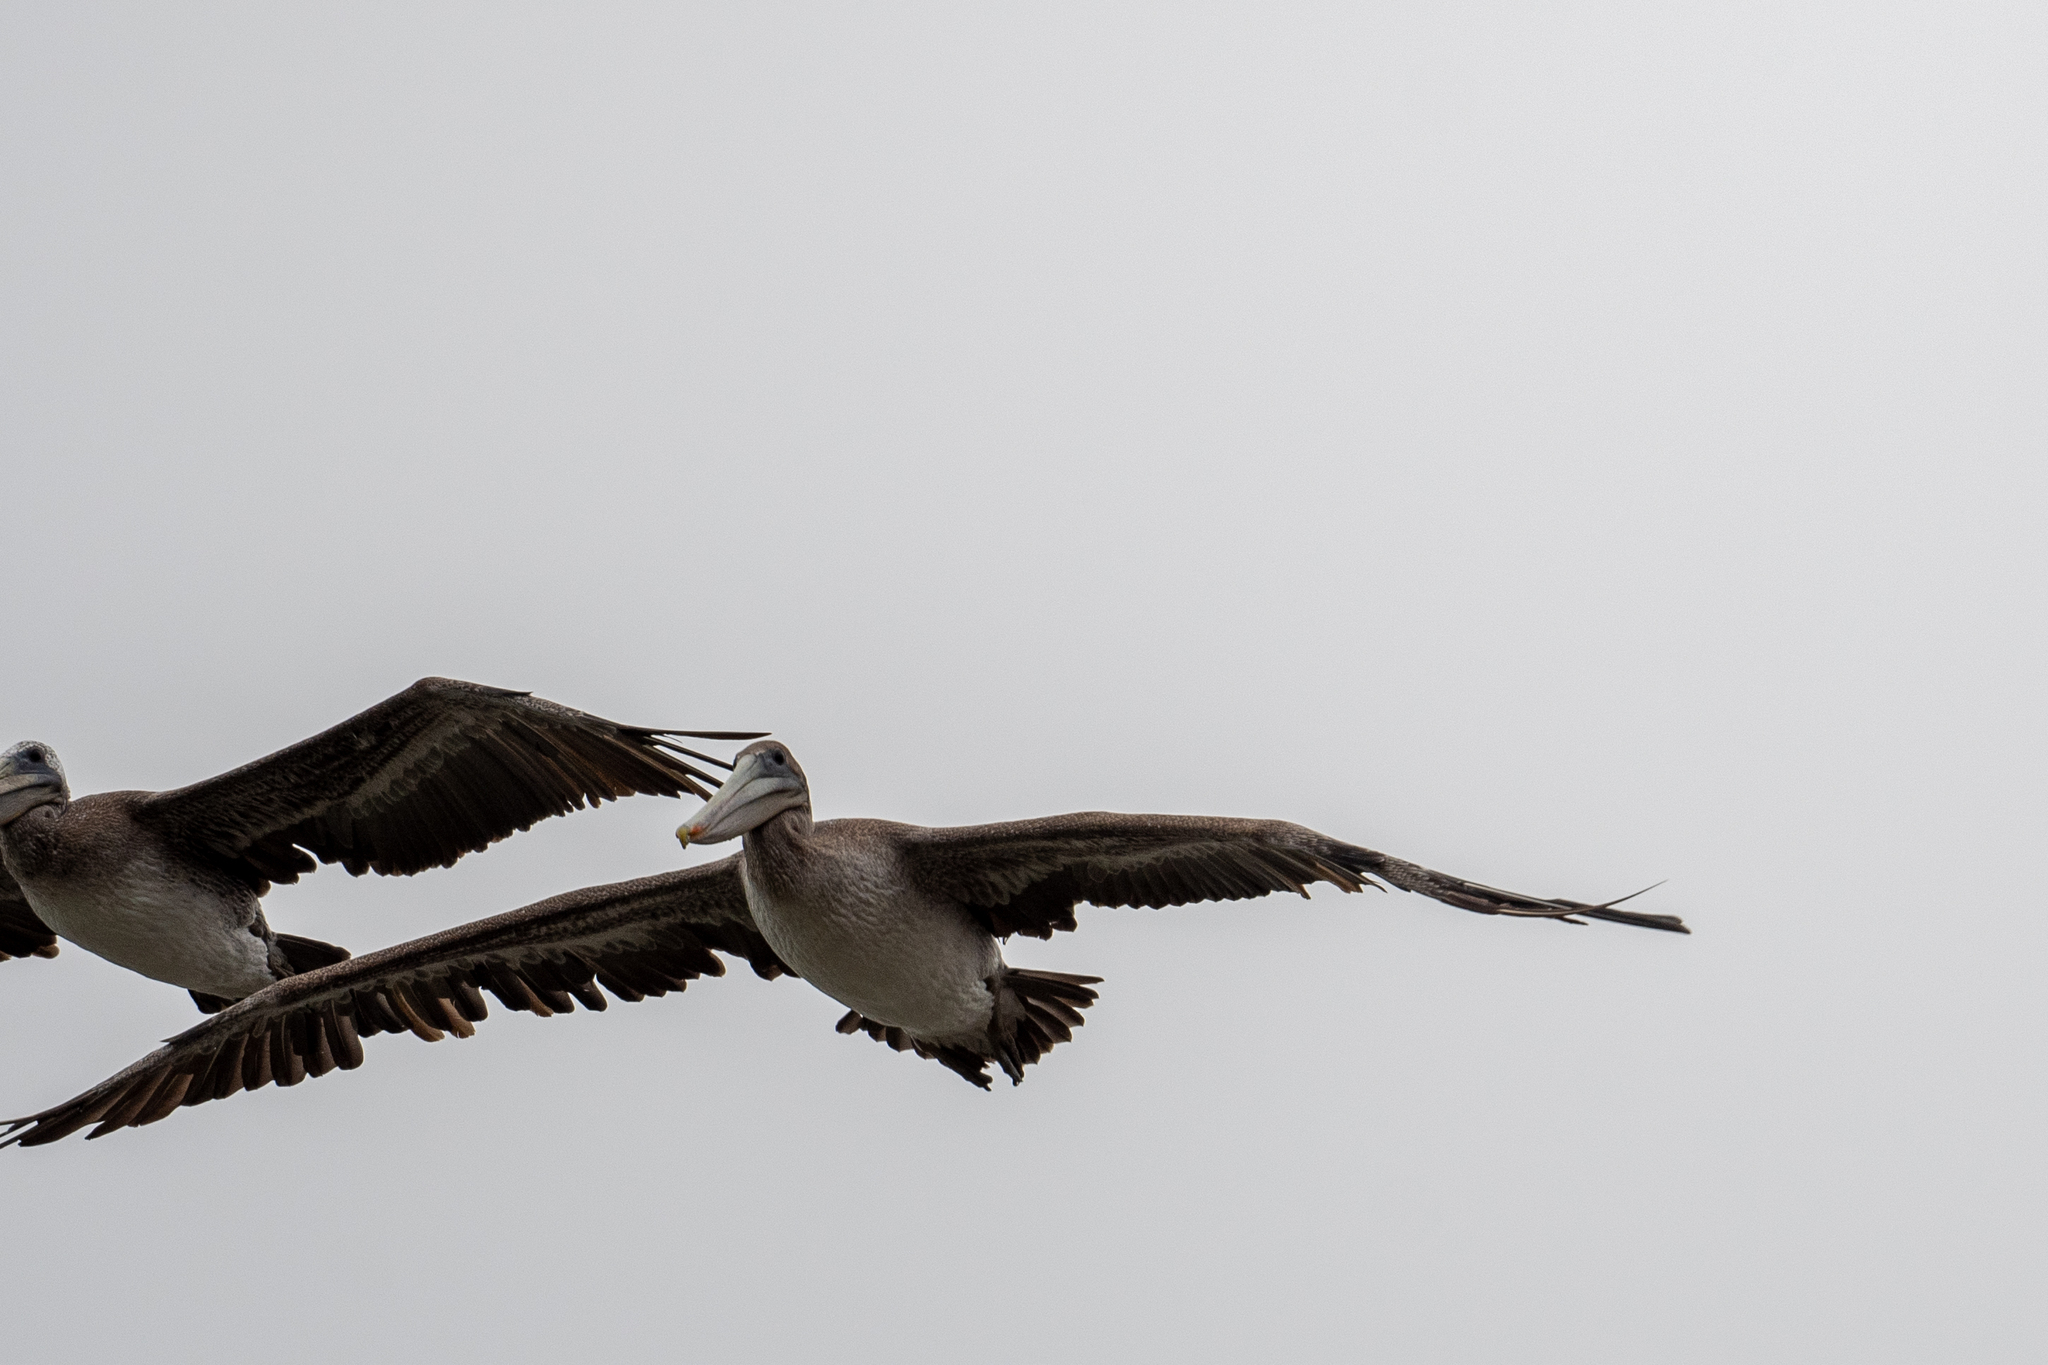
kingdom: Animalia
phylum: Chordata
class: Aves
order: Pelecaniformes
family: Pelecanidae
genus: Pelecanus
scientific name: Pelecanus occidentalis
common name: Brown pelican
